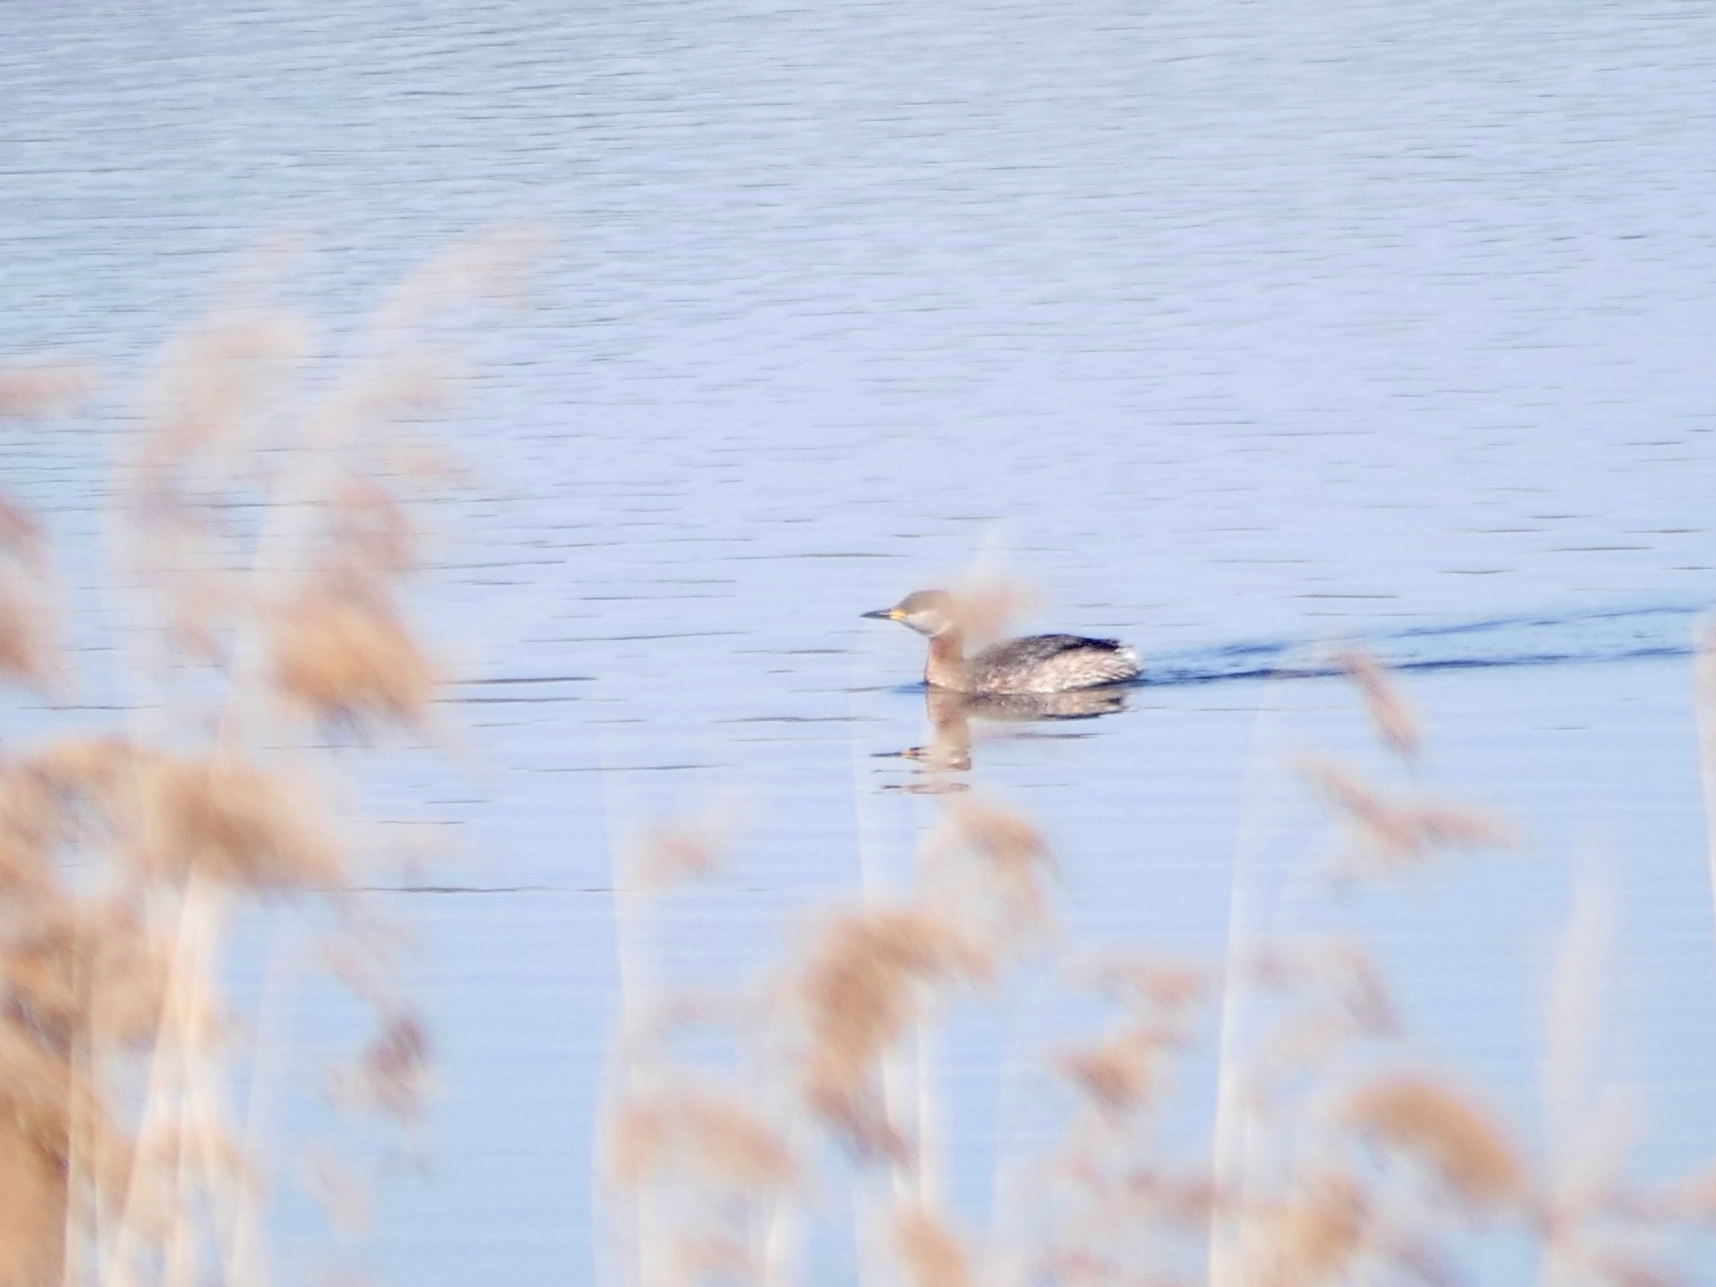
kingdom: Animalia
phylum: Chordata
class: Aves
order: Podicipediformes
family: Podicipedidae
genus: Podiceps
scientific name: Podiceps grisegena
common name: Red-necked grebe
